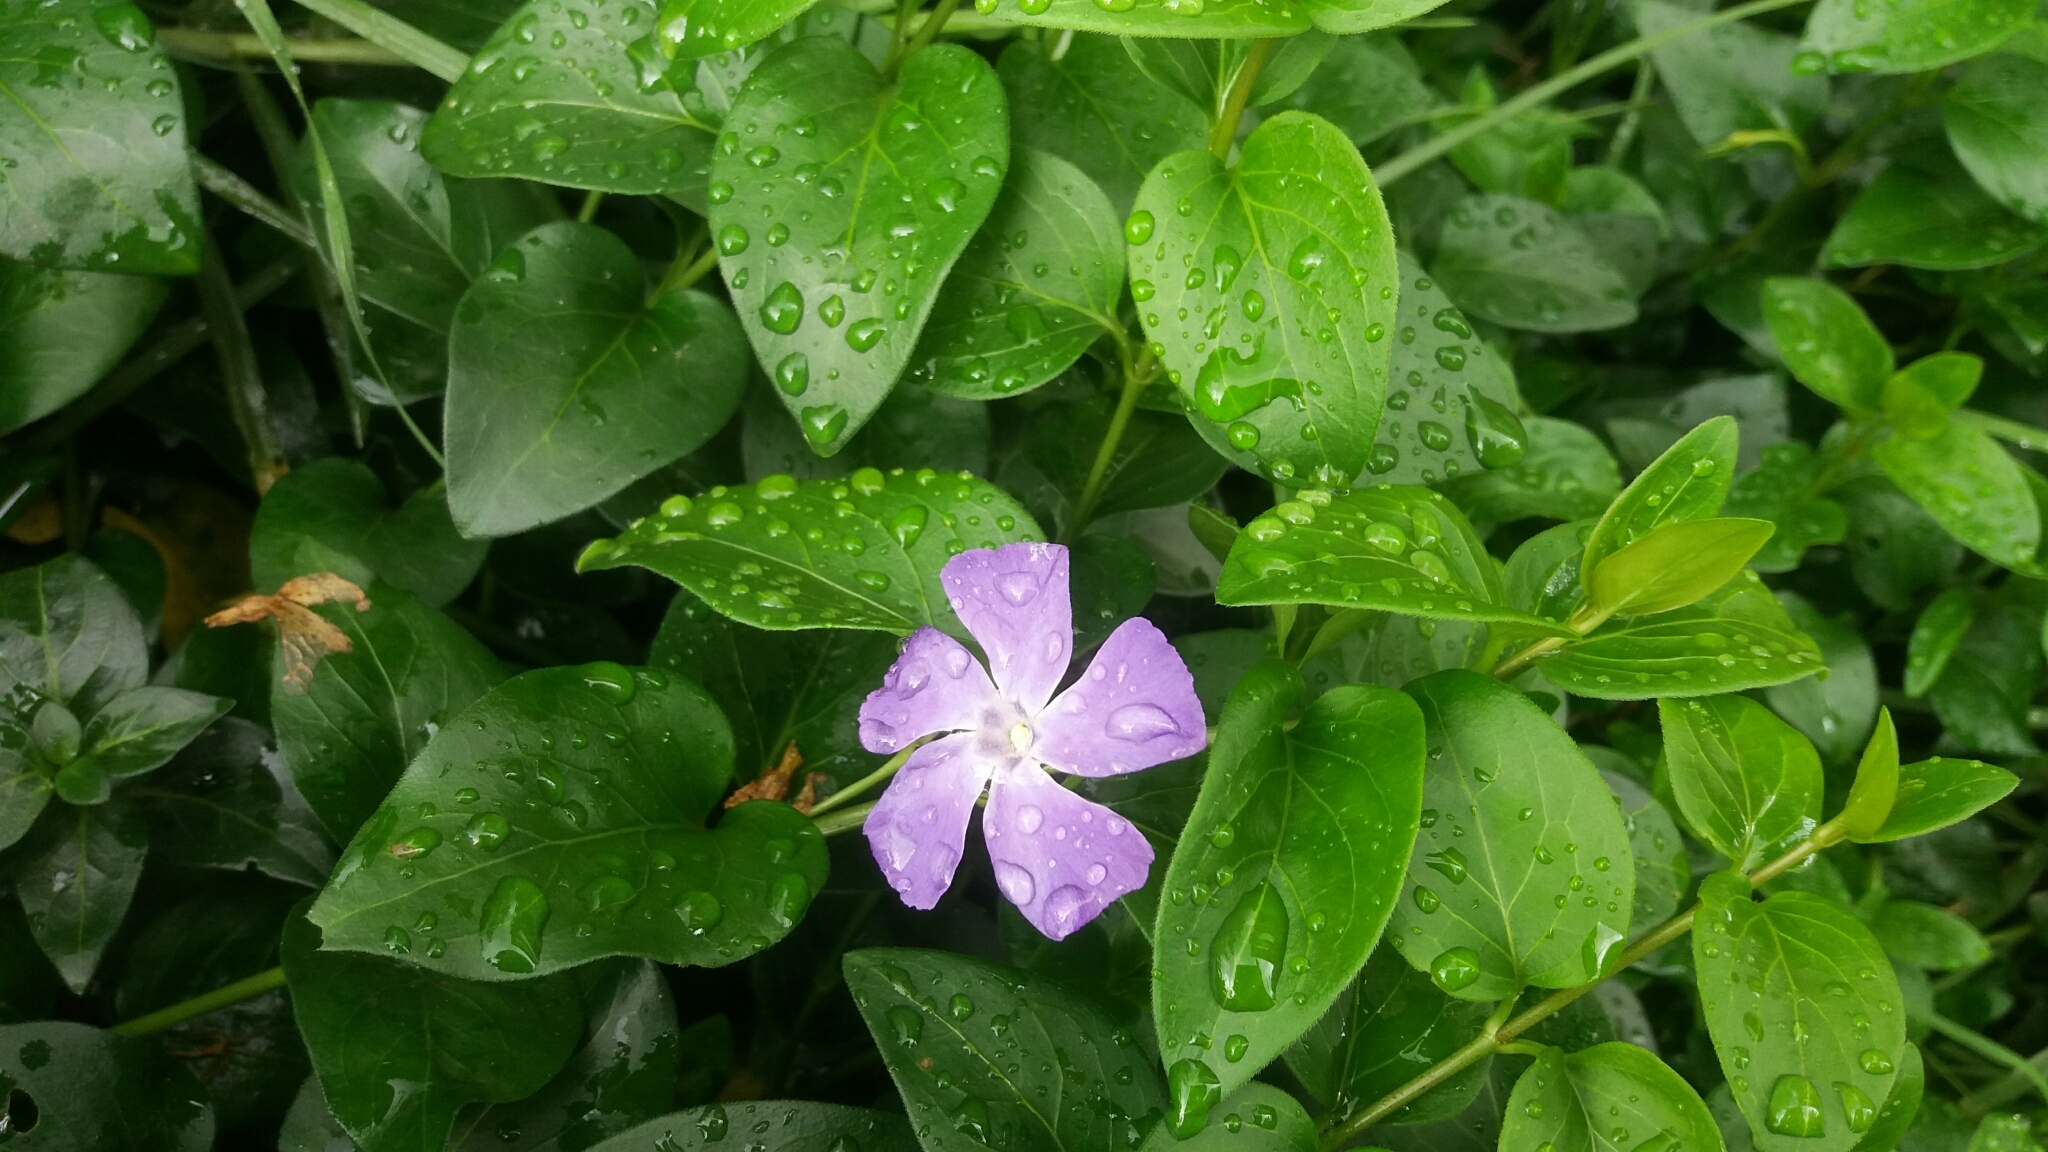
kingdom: Plantae
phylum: Tracheophyta
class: Magnoliopsida
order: Gentianales
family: Apocynaceae
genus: Vinca
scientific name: Vinca major
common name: Greater periwinkle
